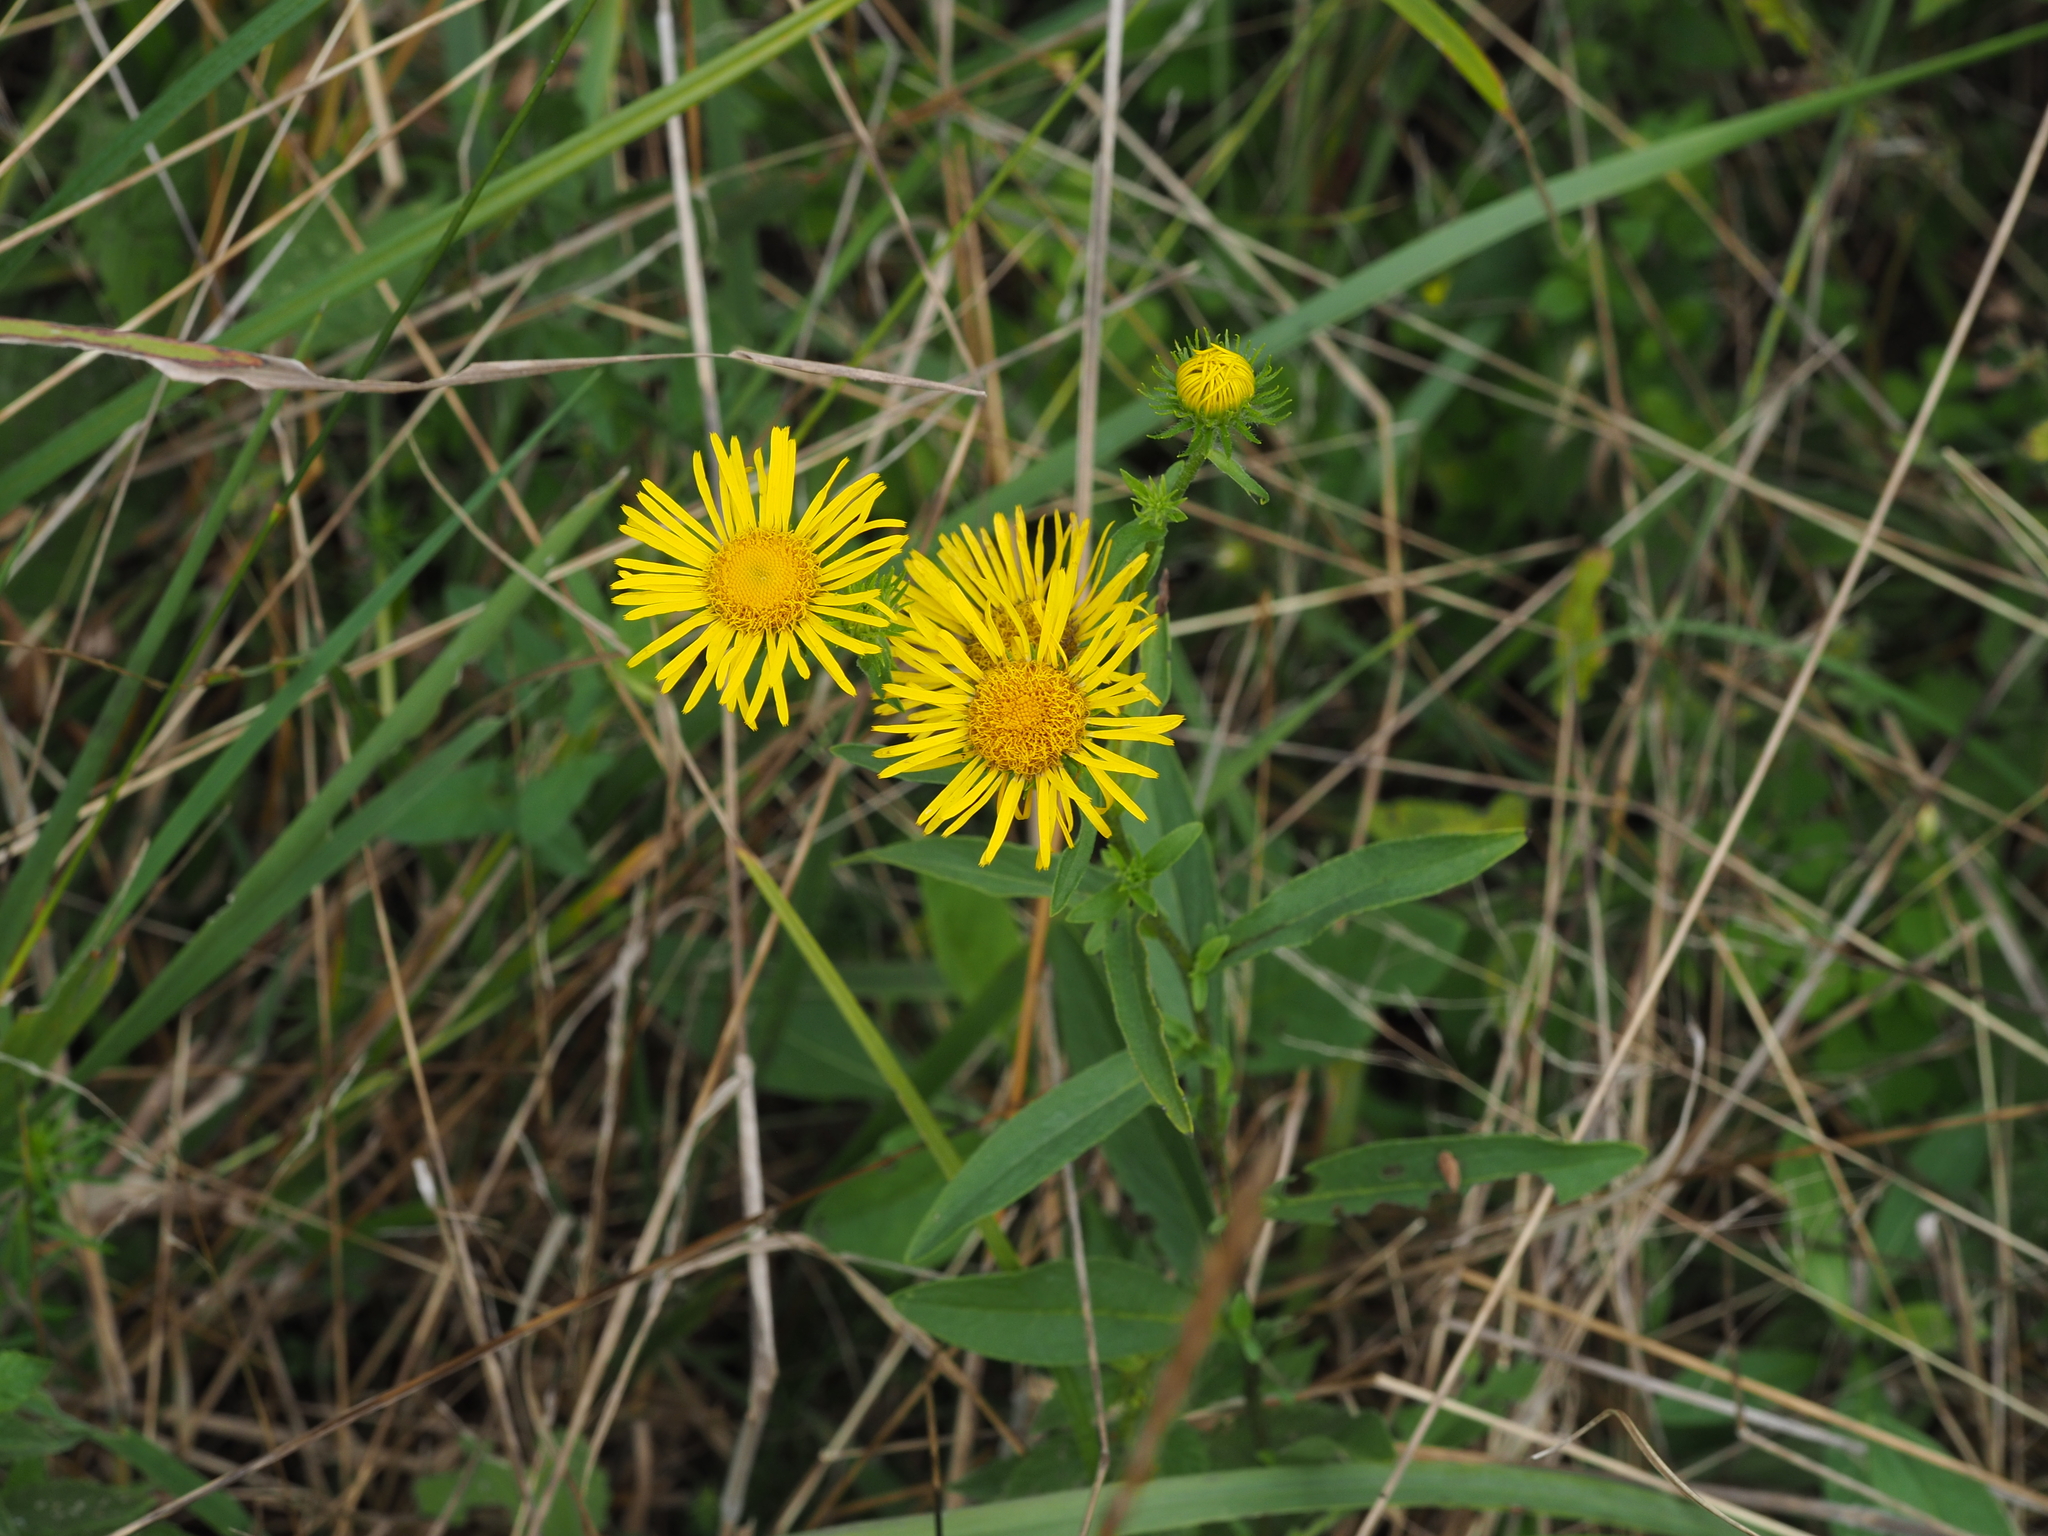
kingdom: Plantae
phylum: Tracheophyta
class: Magnoliopsida
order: Asterales
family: Asteraceae
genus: Pentanema
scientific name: Pentanema britannicum
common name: British elecampane
